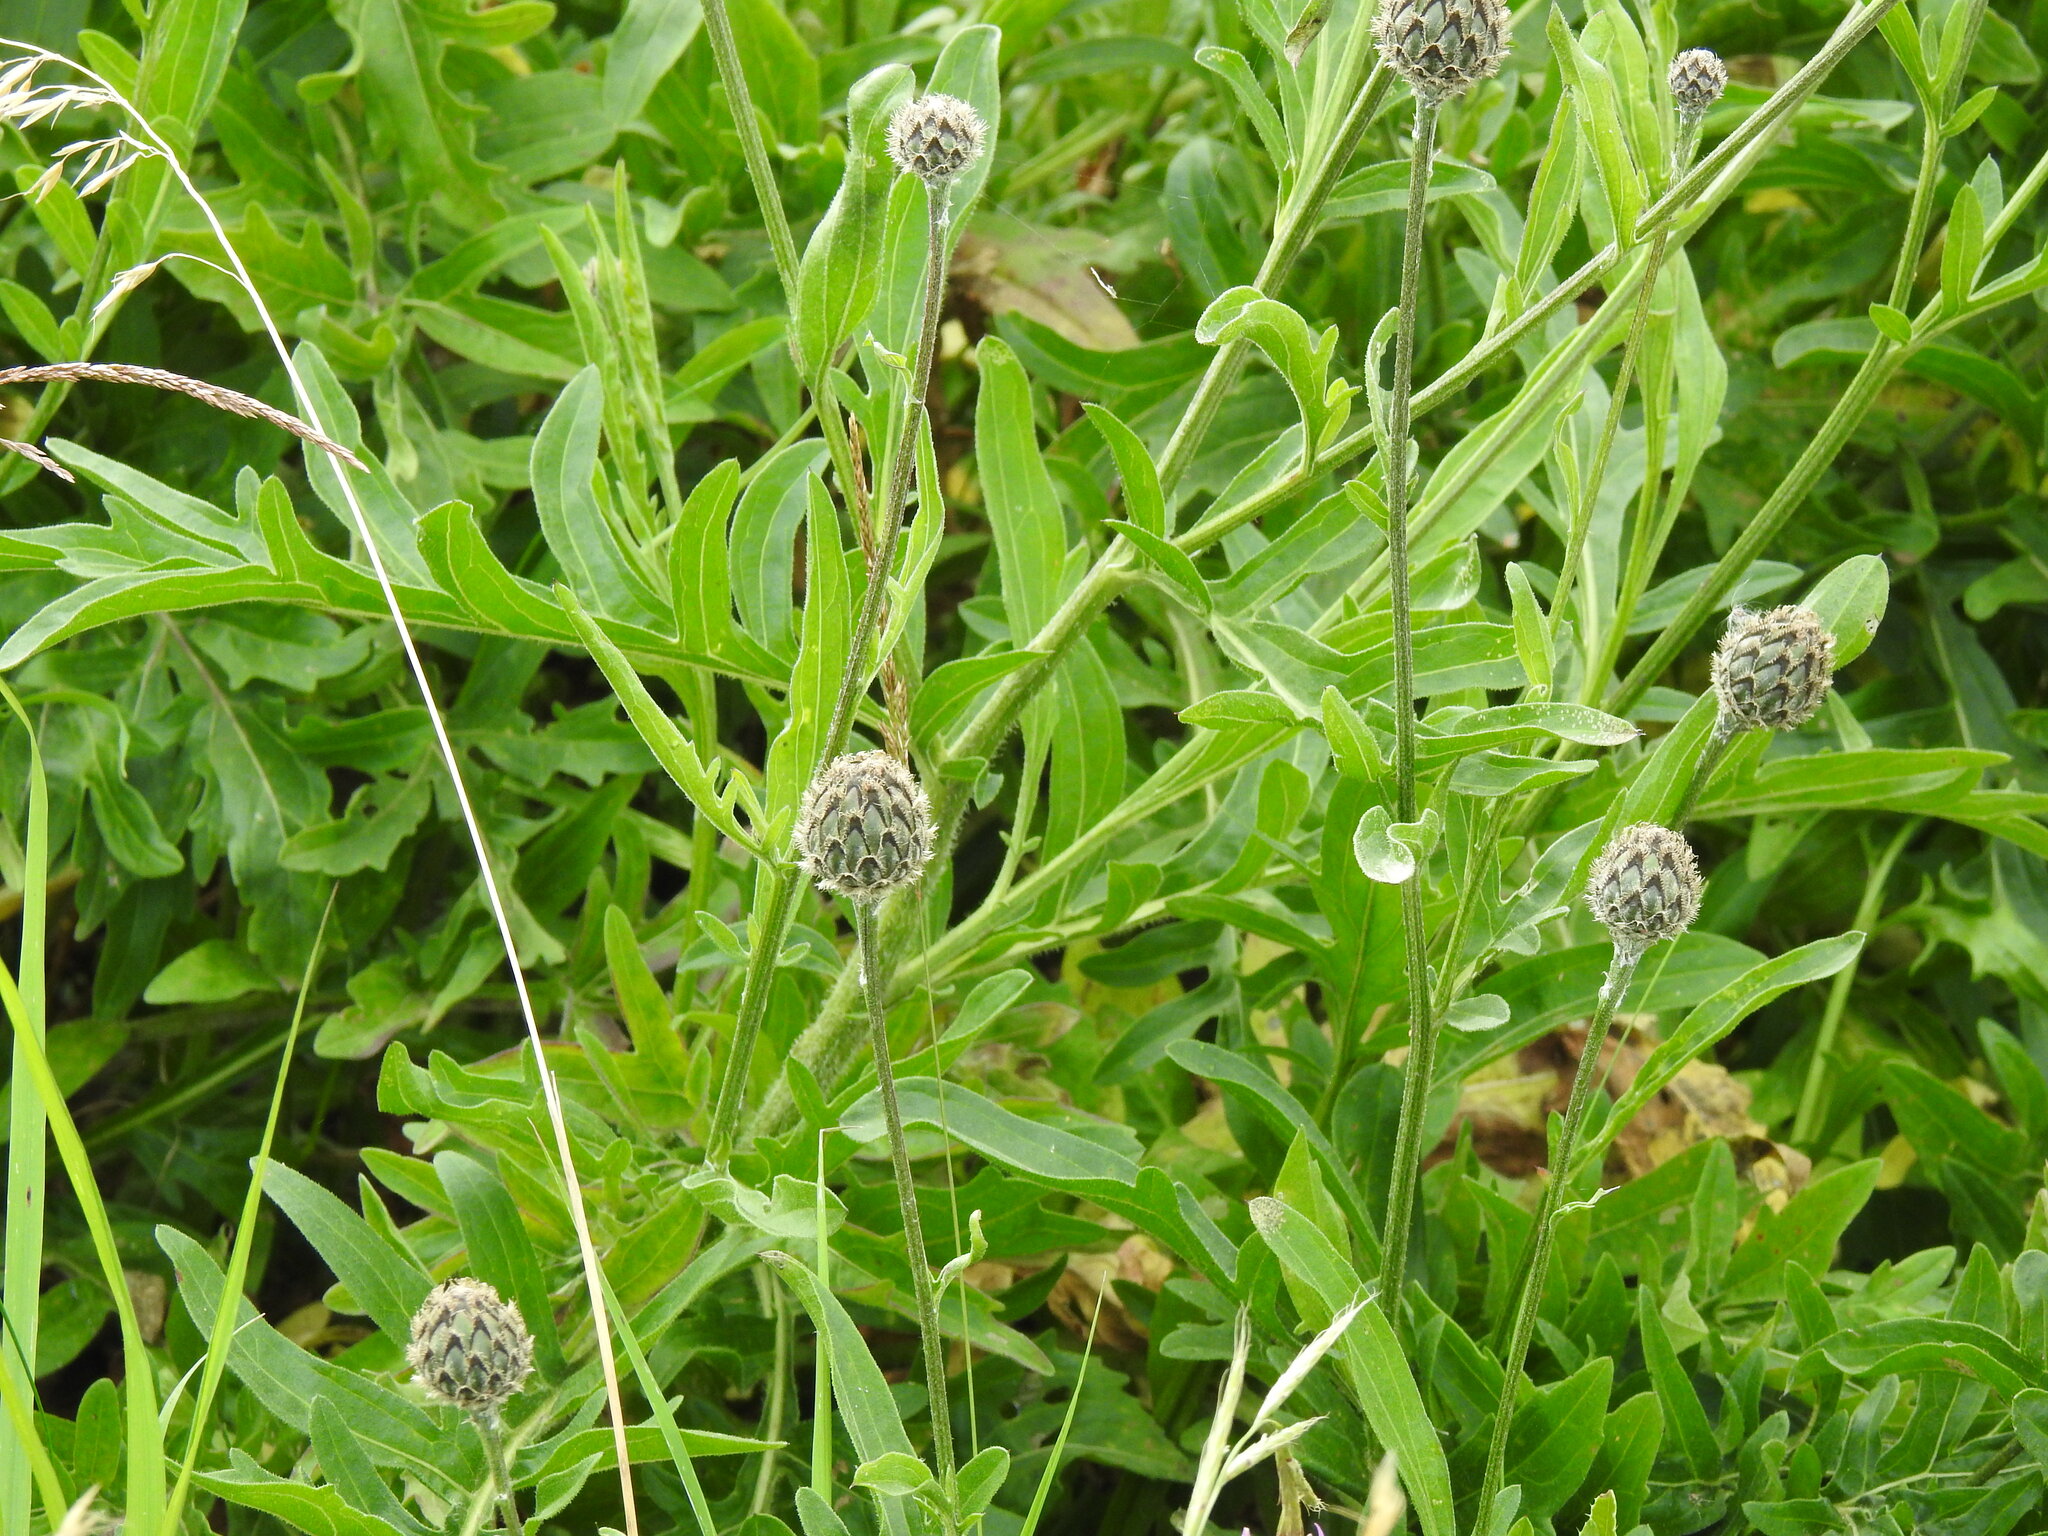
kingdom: Plantae
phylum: Tracheophyta
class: Magnoliopsida
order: Asterales
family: Asteraceae
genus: Centaurea
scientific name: Centaurea scabiosa
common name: Greater knapweed
